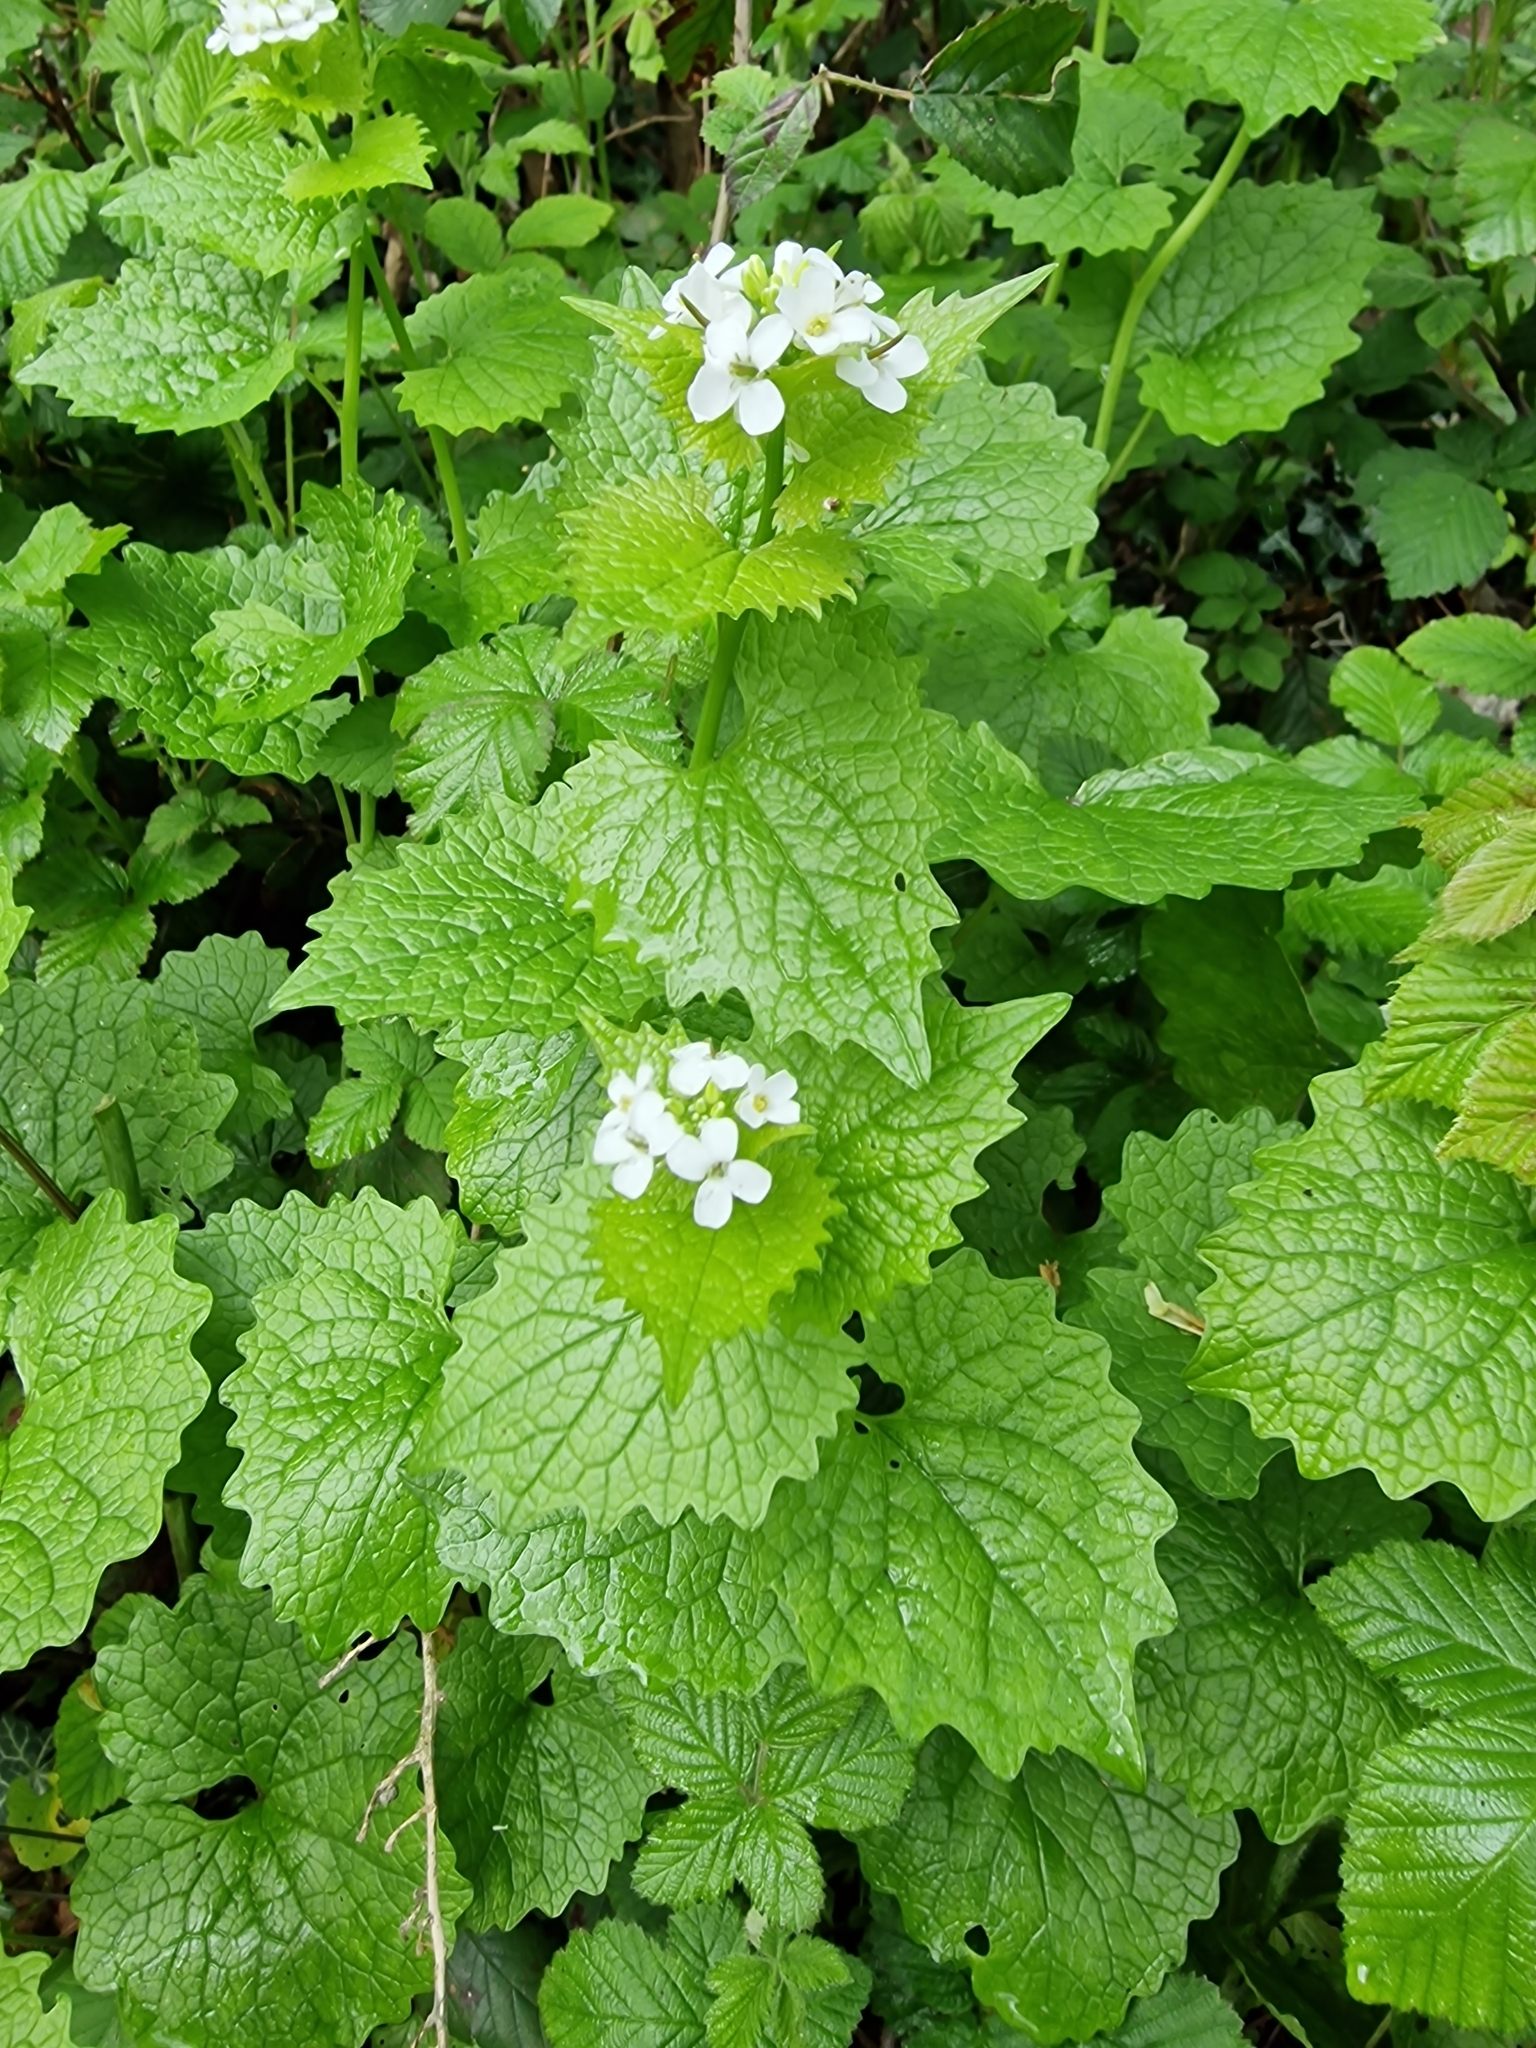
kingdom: Plantae
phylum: Tracheophyta
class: Magnoliopsida
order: Brassicales
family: Brassicaceae
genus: Alliaria
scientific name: Alliaria petiolata
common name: Garlic mustard
